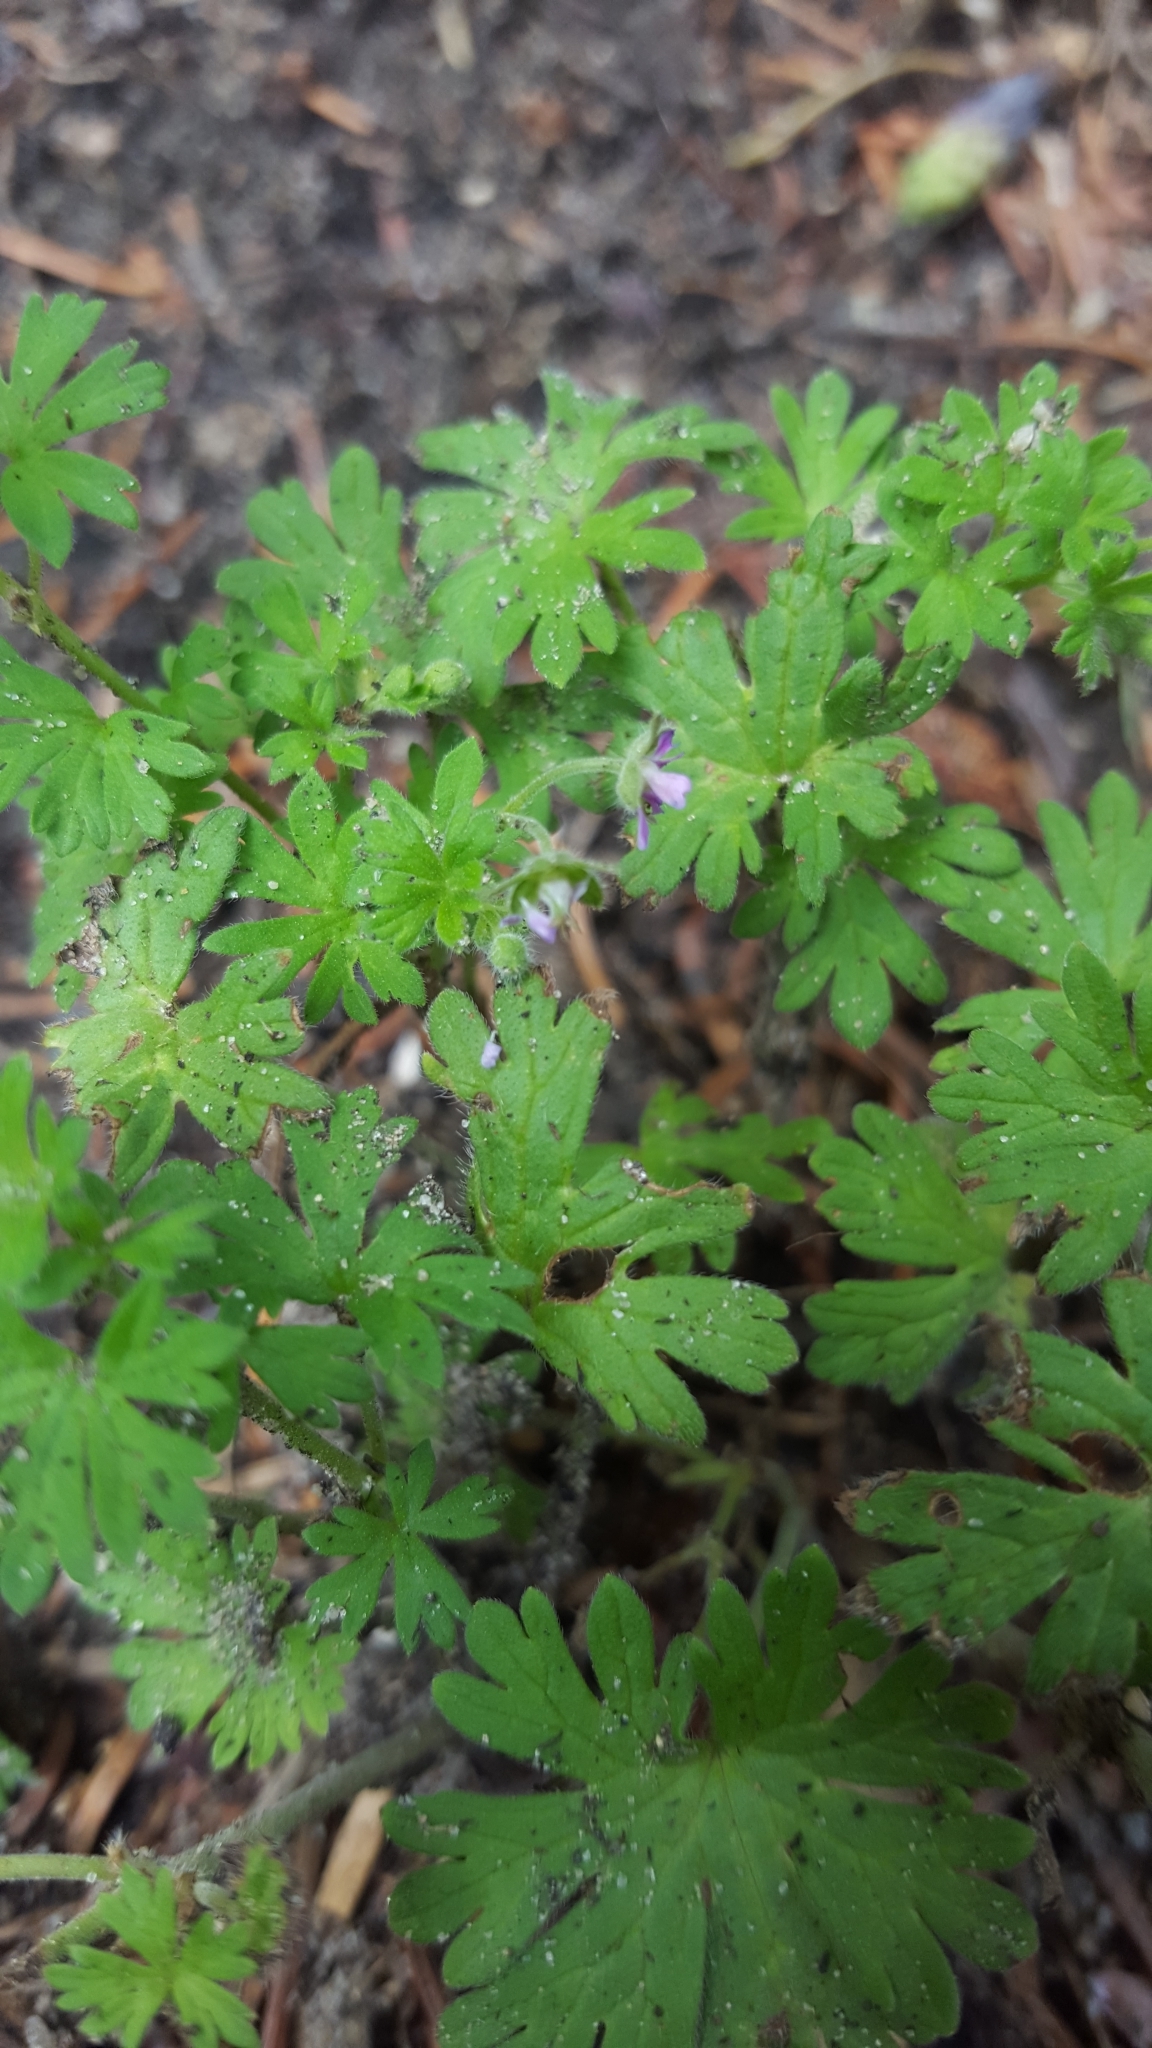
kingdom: Plantae
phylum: Tracheophyta
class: Magnoliopsida
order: Geraniales
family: Geraniaceae
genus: Geranium
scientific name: Geranium pusillum
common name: Small geranium
